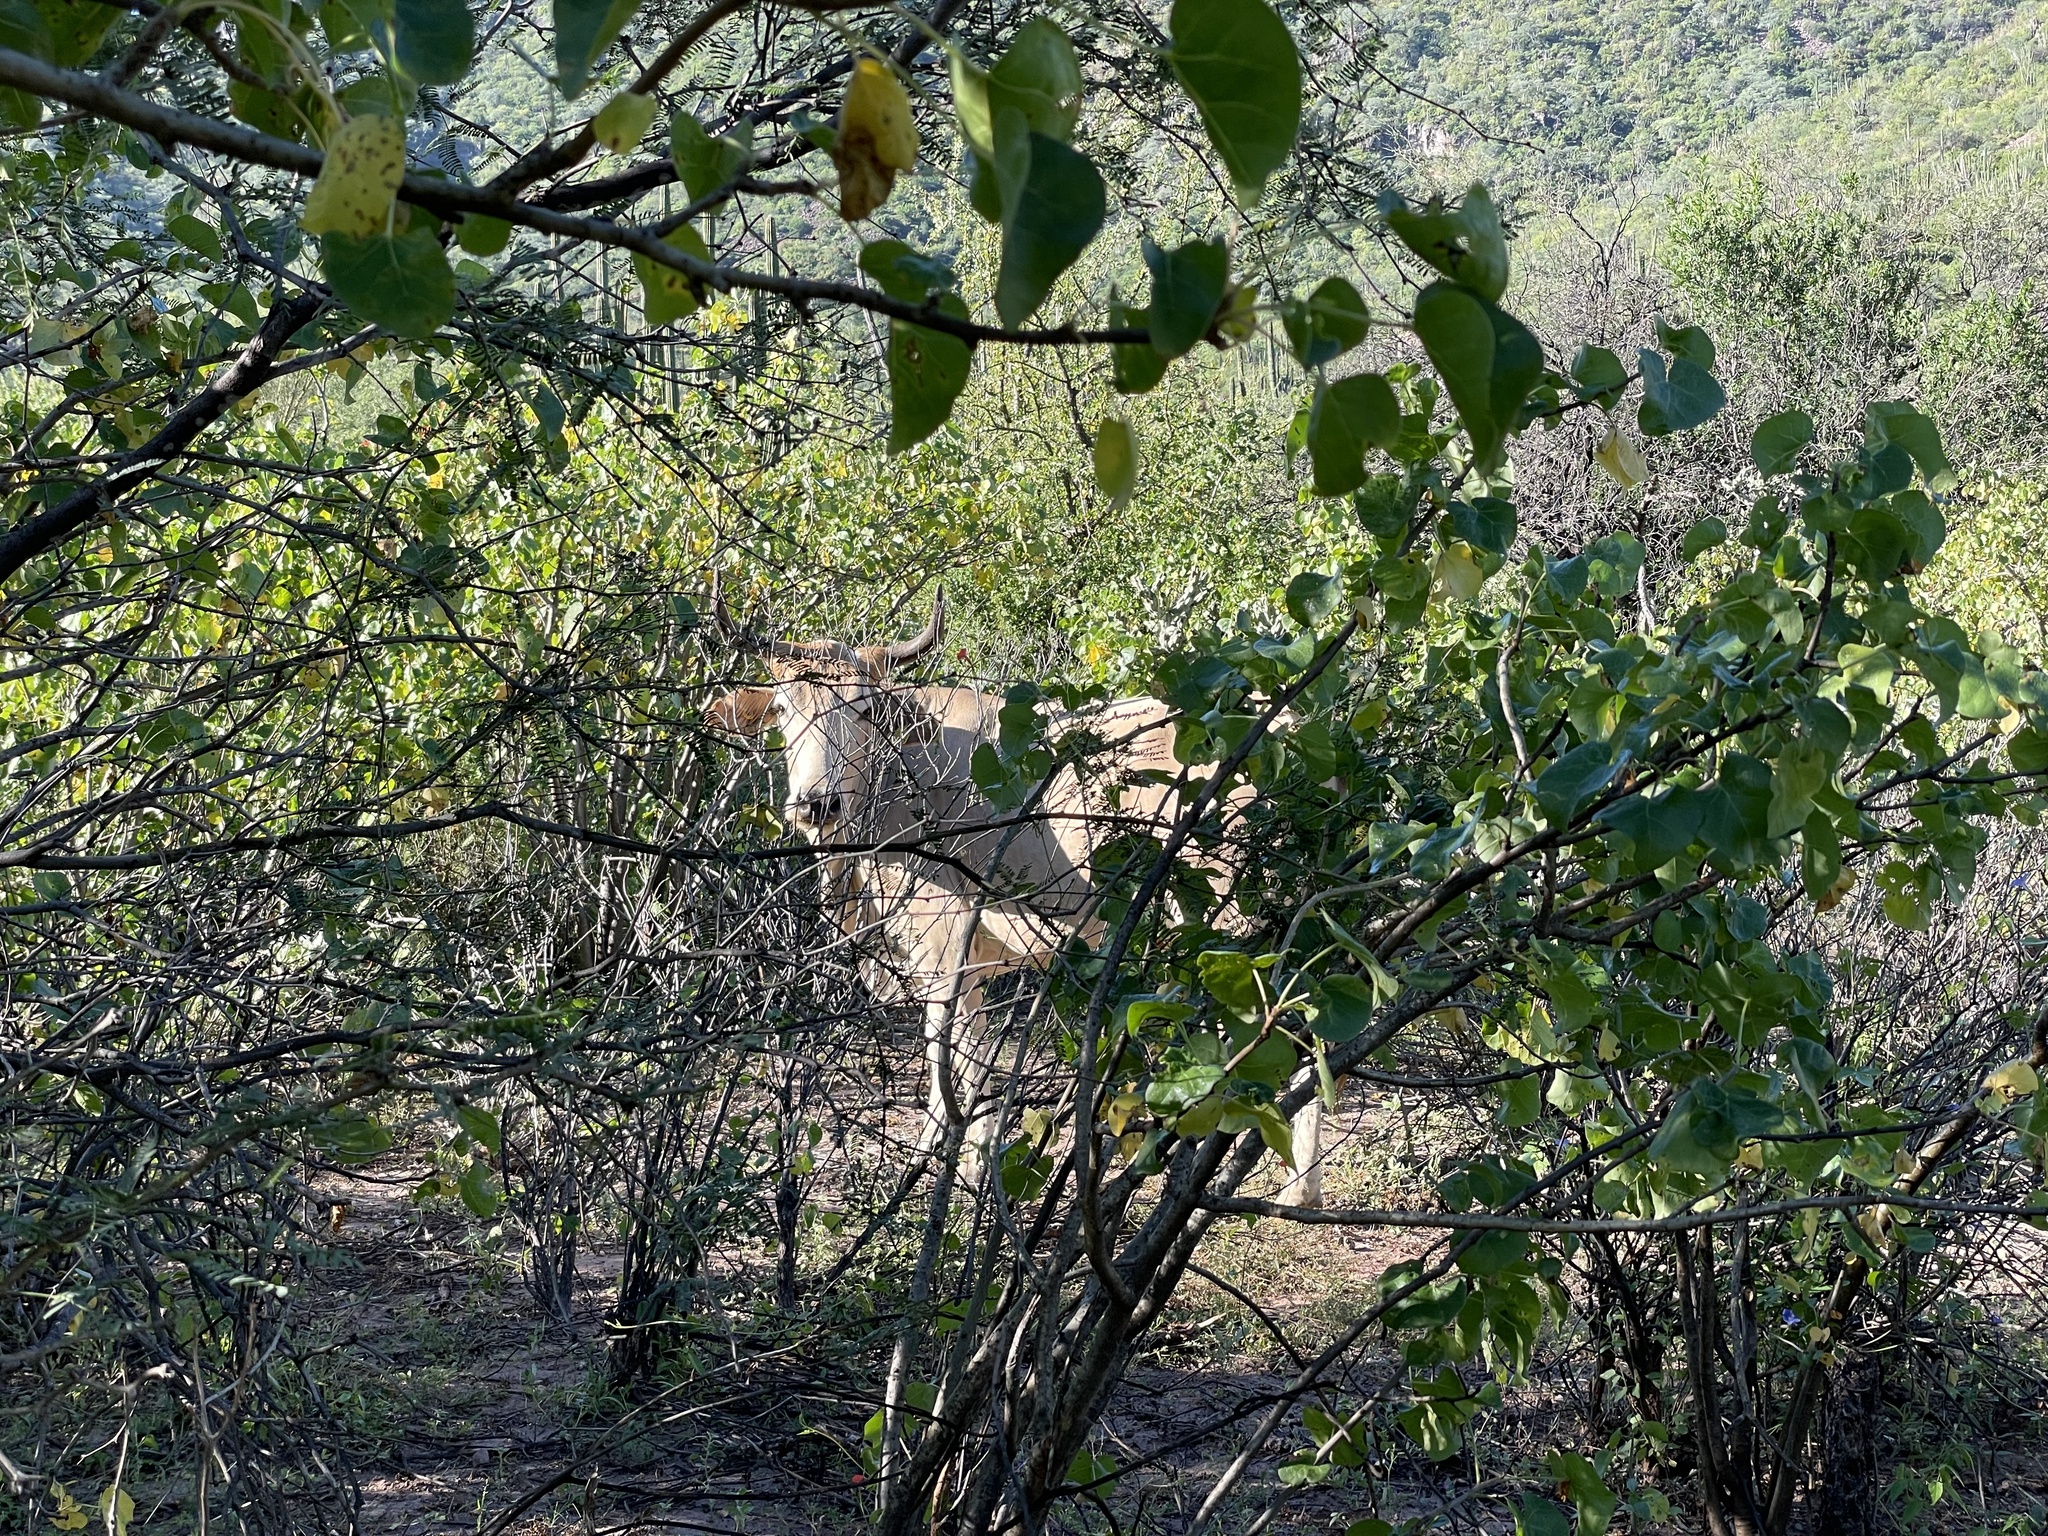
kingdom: Animalia
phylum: Chordata
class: Mammalia
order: Artiodactyla
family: Bovidae
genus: Bos
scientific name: Bos taurus
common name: Domesticated cattle
